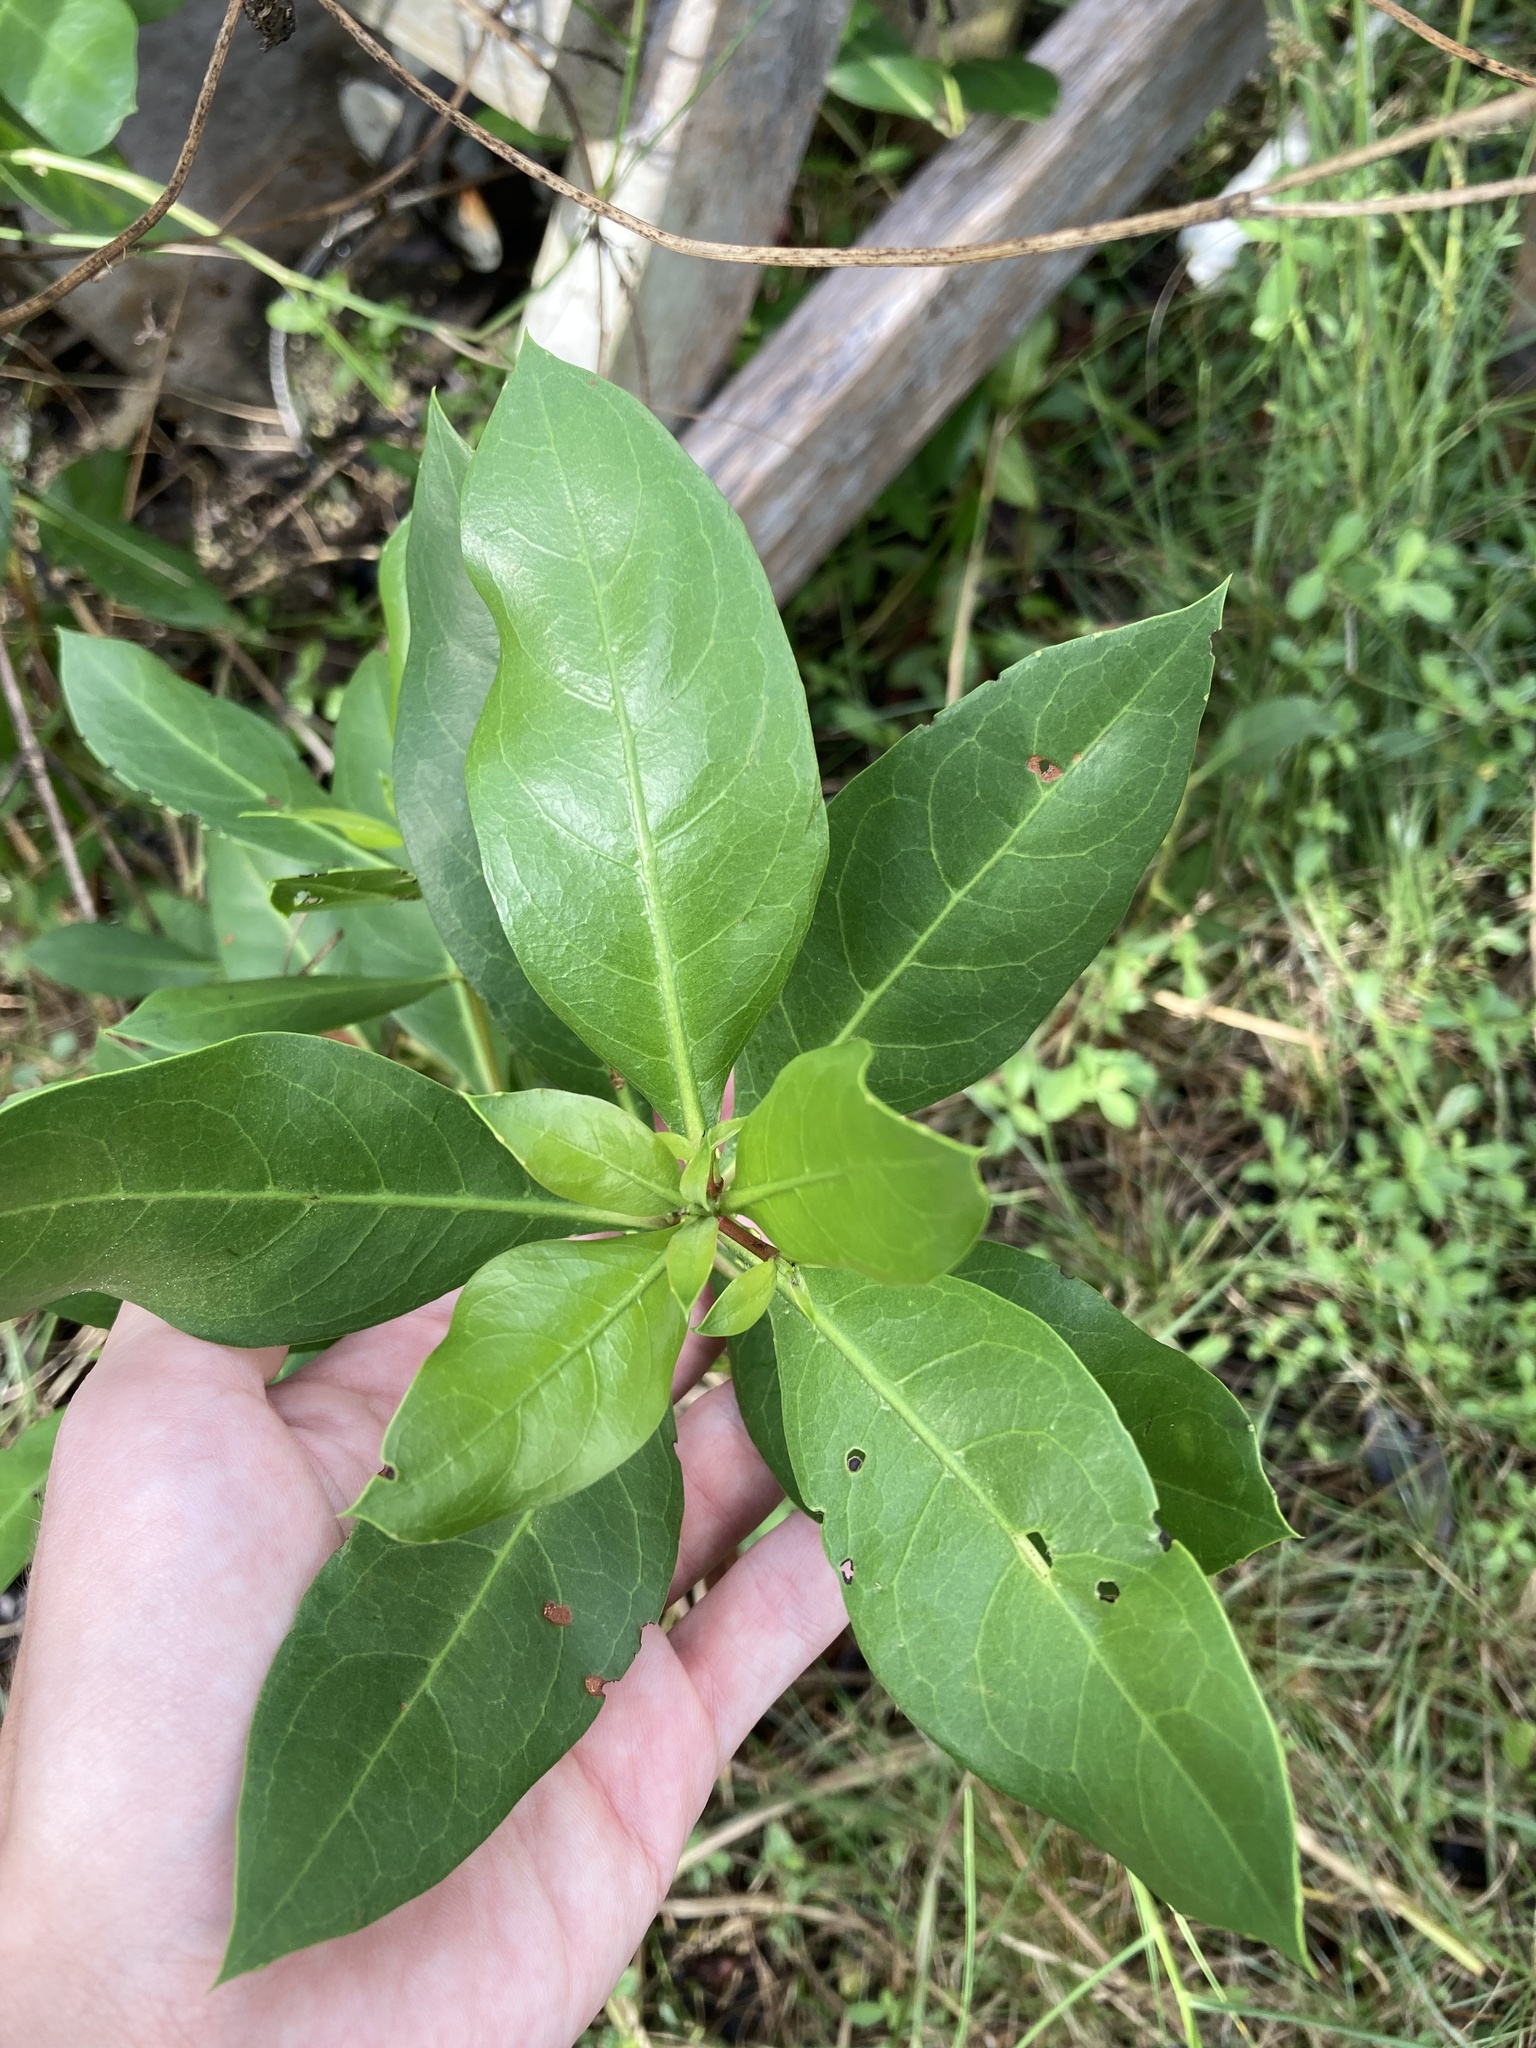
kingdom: Plantae
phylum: Tracheophyta
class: Magnoliopsida
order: Myrtales
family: Combretaceae
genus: Conocarpus
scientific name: Conocarpus erectus
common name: Button mangrove
